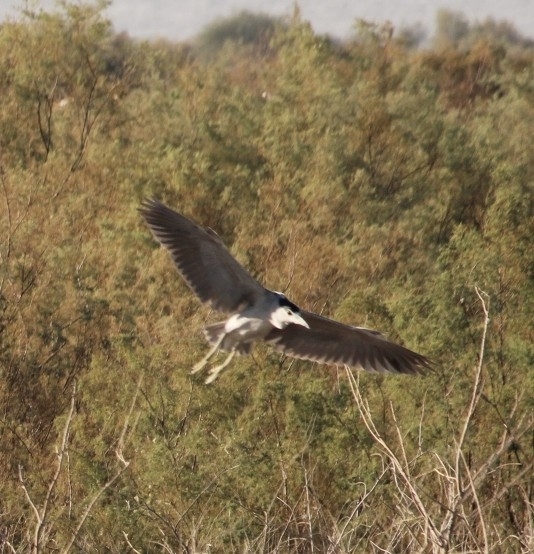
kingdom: Animalia
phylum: Chordata
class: Aves
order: Pelecaniformes
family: Ardeidae
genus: Nycticorax
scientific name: Nycticorax nycticorax
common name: Black-crowned night heron
